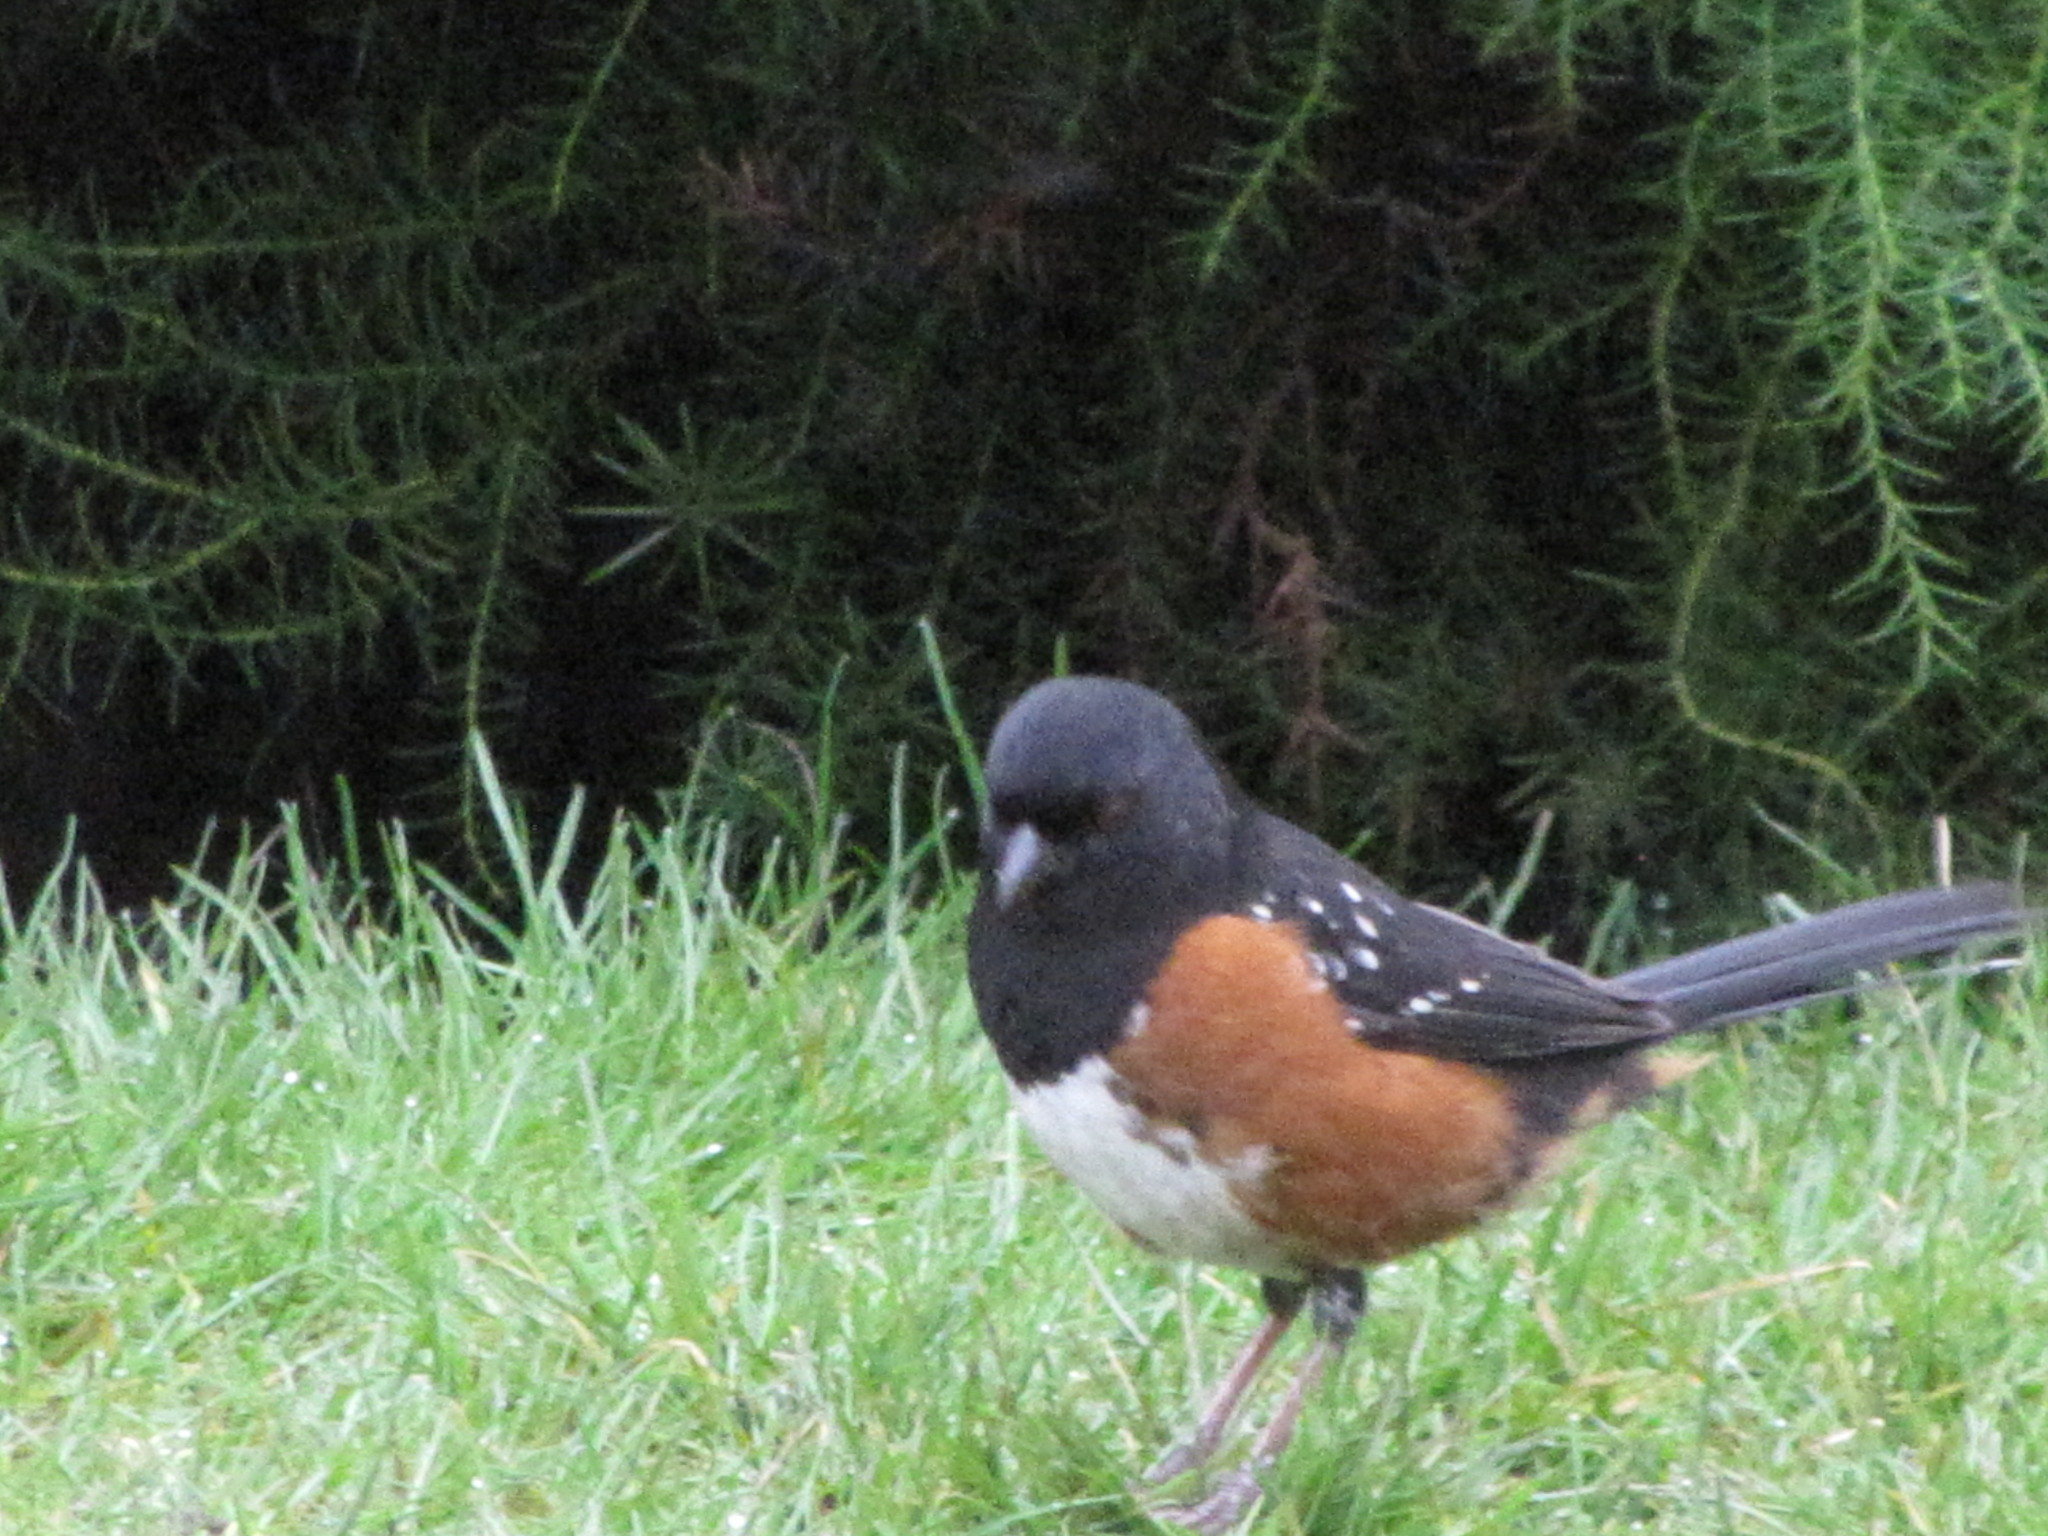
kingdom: Animalia
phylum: Chordata
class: Aves
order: Passeriformes
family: Passerellidae
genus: Pipilo
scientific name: Pipilo maculatus
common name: Spotted towhee
